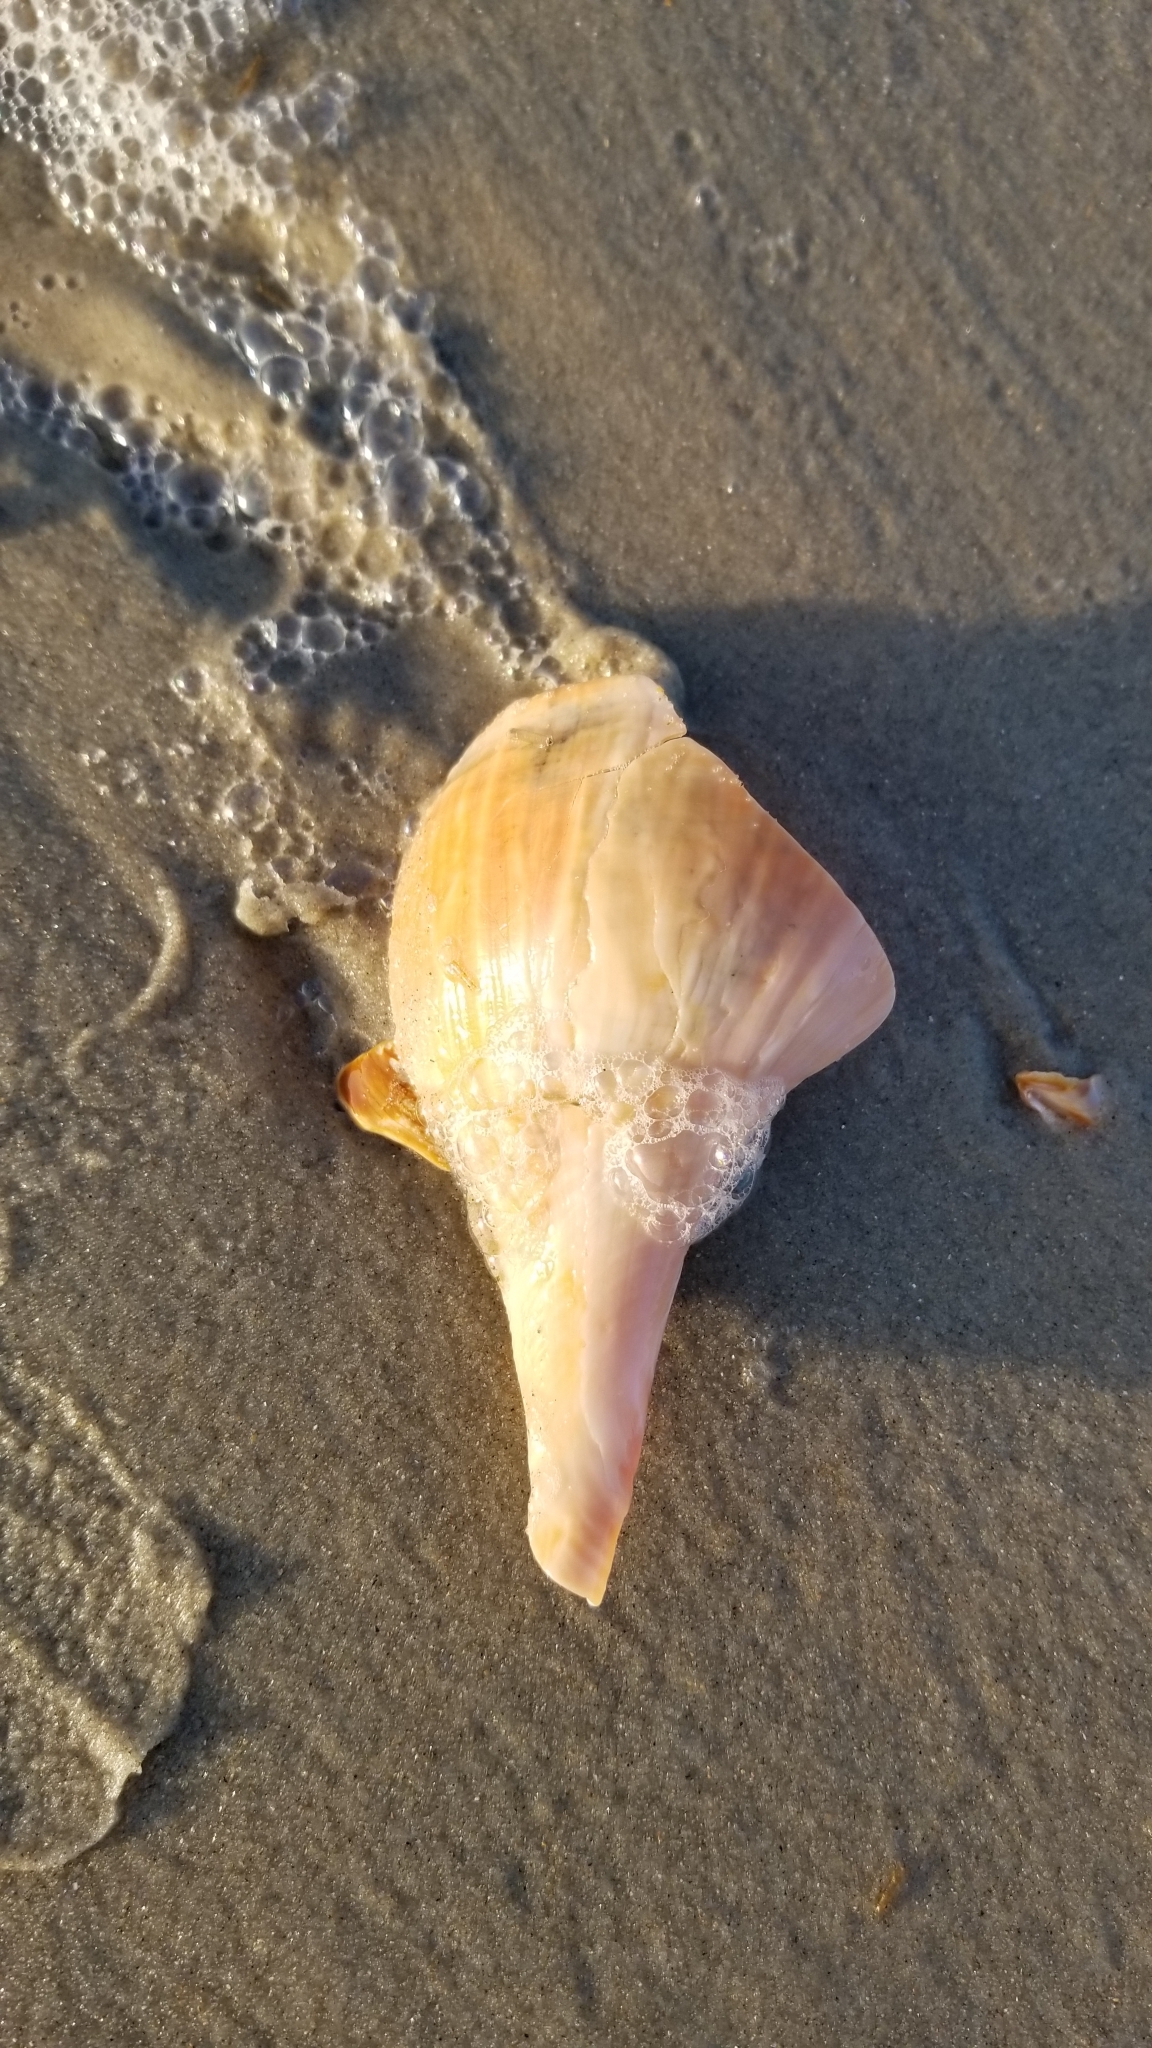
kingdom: Animalia
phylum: Mollusca
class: Gastropoda
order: Neogastropoda
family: Busyconidae
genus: Busycotypus
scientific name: Busycotypus canaliculatus
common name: Channeled whelk
